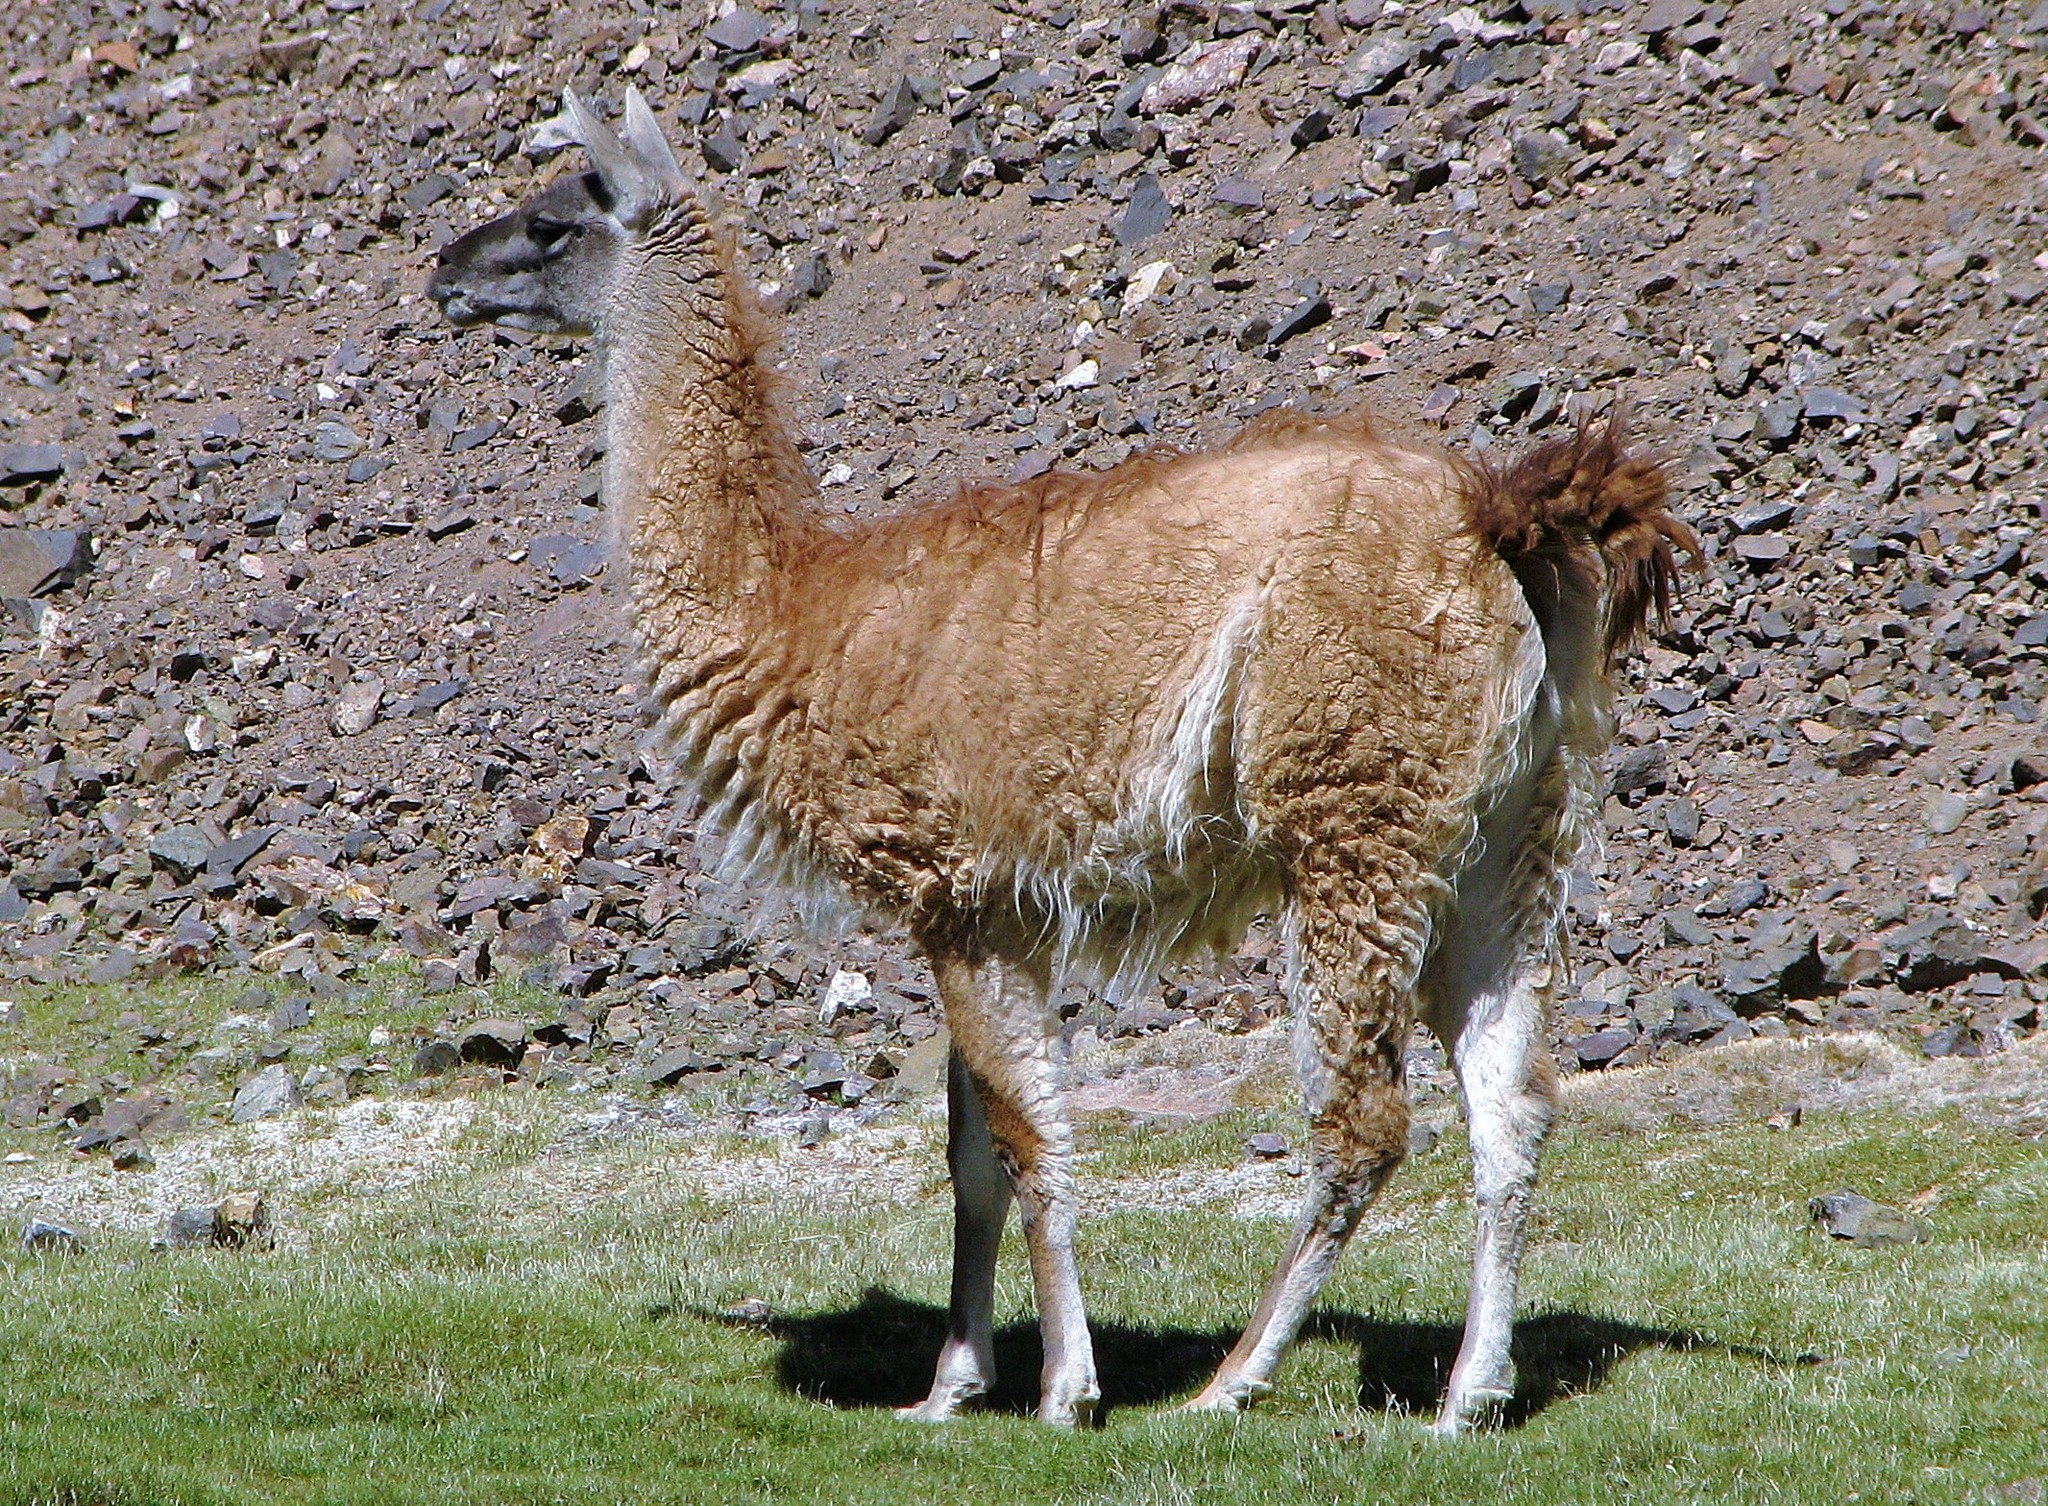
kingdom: Animalia
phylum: Chordata
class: Mammalia
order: Artiodactyla
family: Camelidae
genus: Lama
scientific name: Lama glama
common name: Llama
